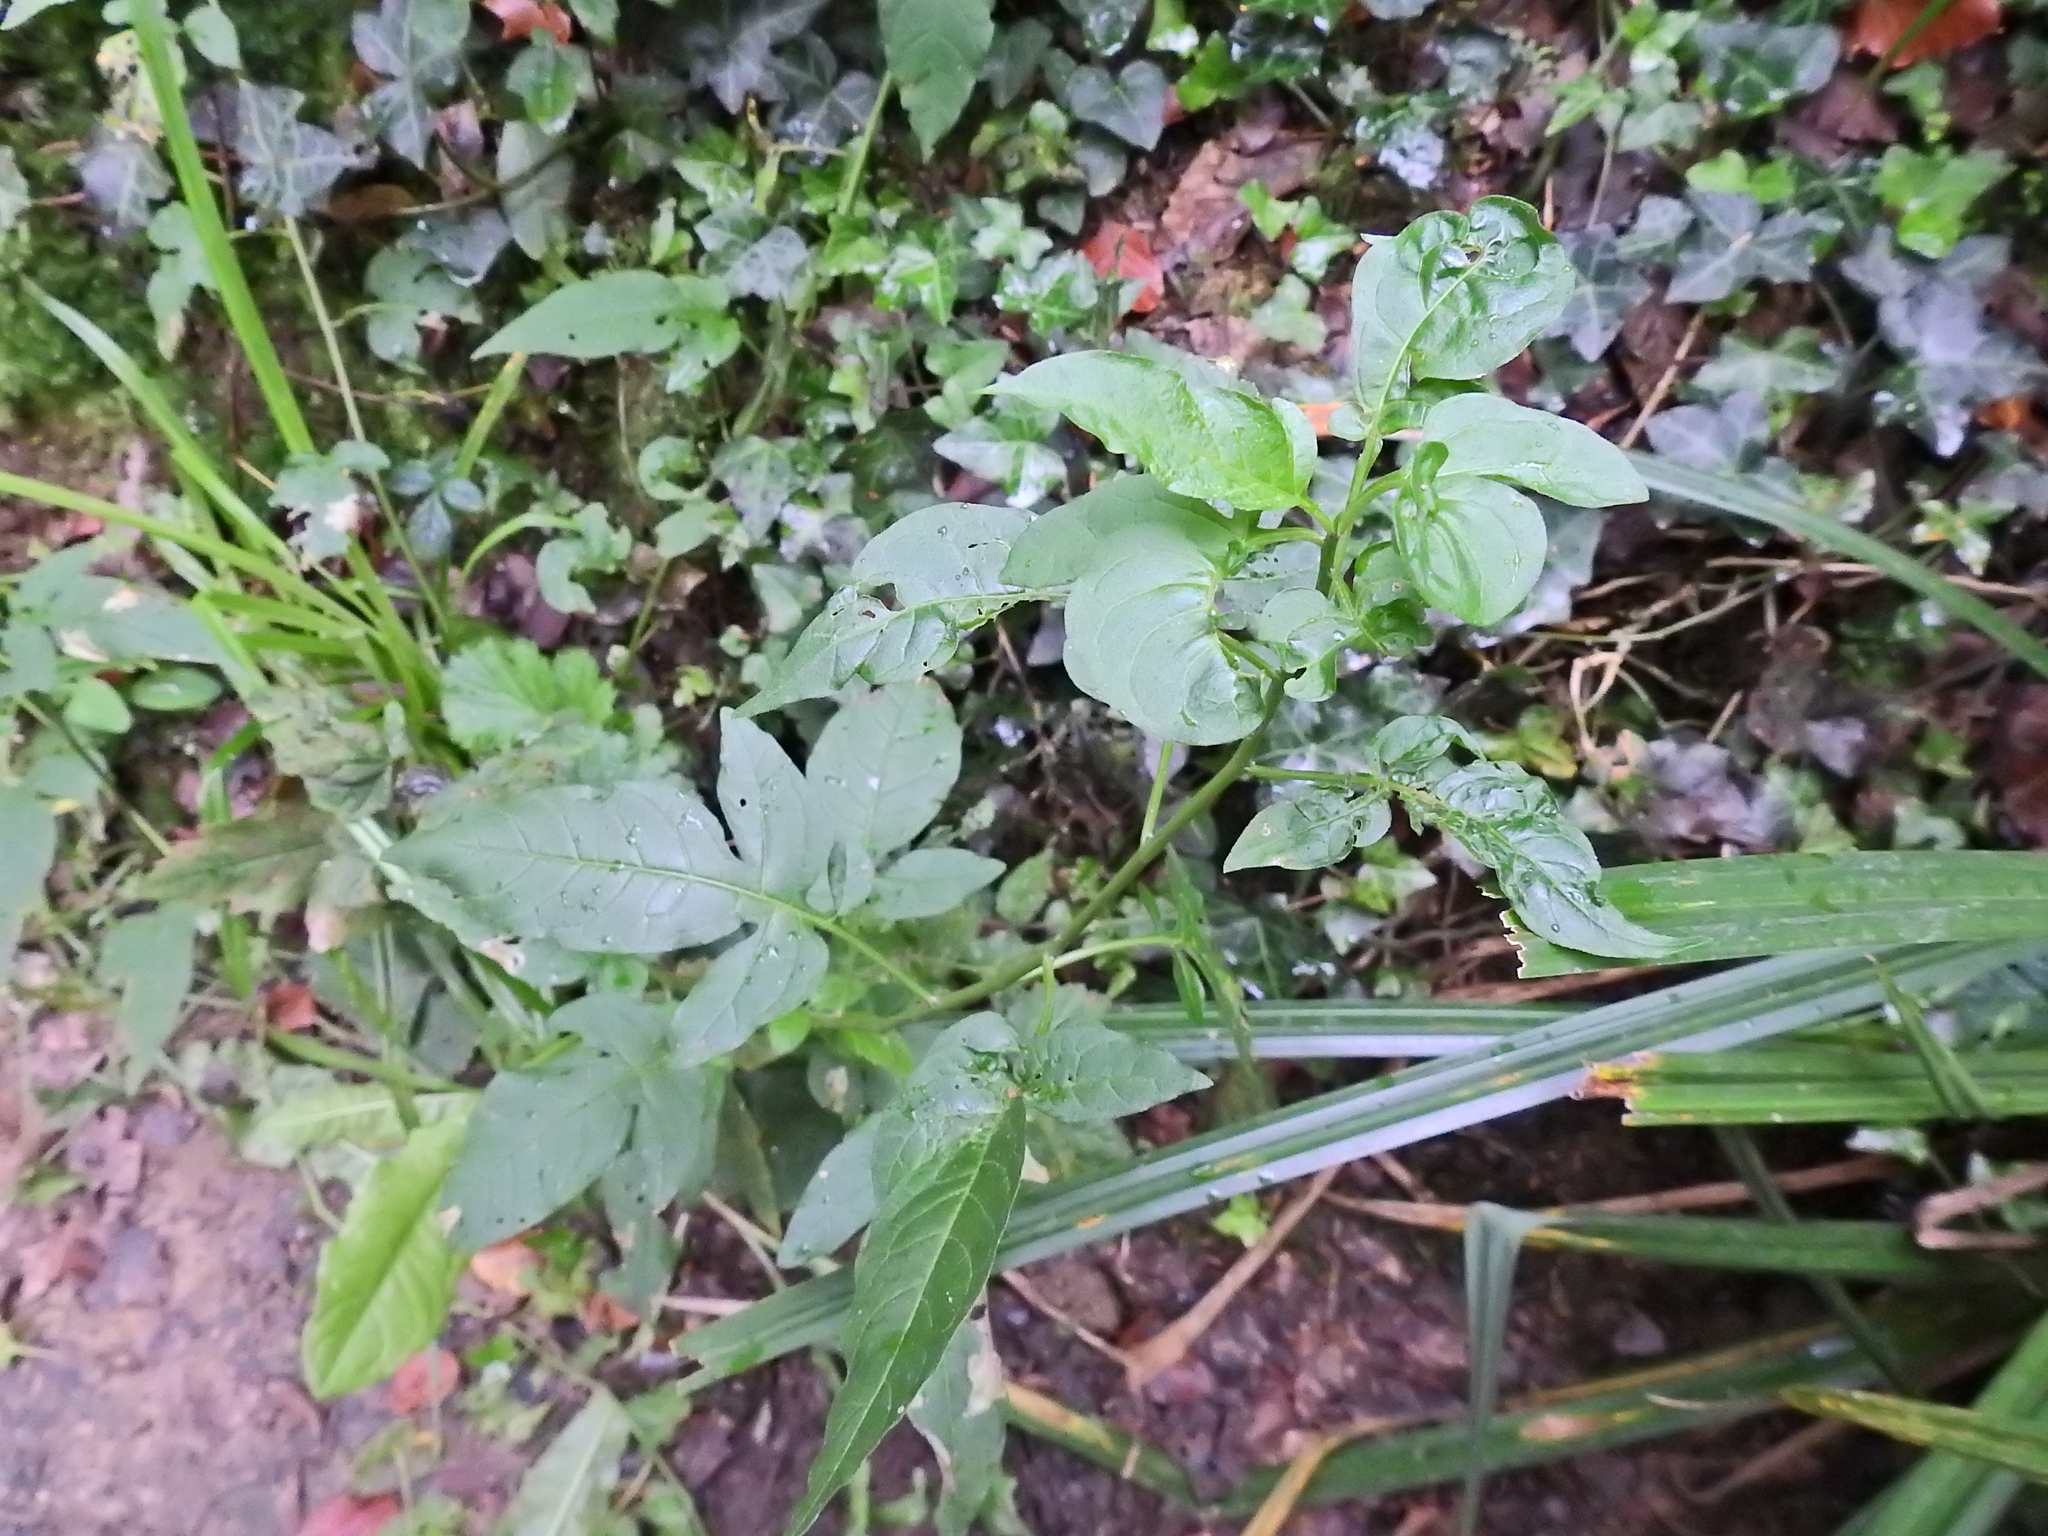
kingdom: Plantae
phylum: Tracheophyta
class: Magnoliopsida
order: Solanales
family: Solanaceae
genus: Solanum
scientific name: Solanum dulcamara
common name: Climbing nightshade
